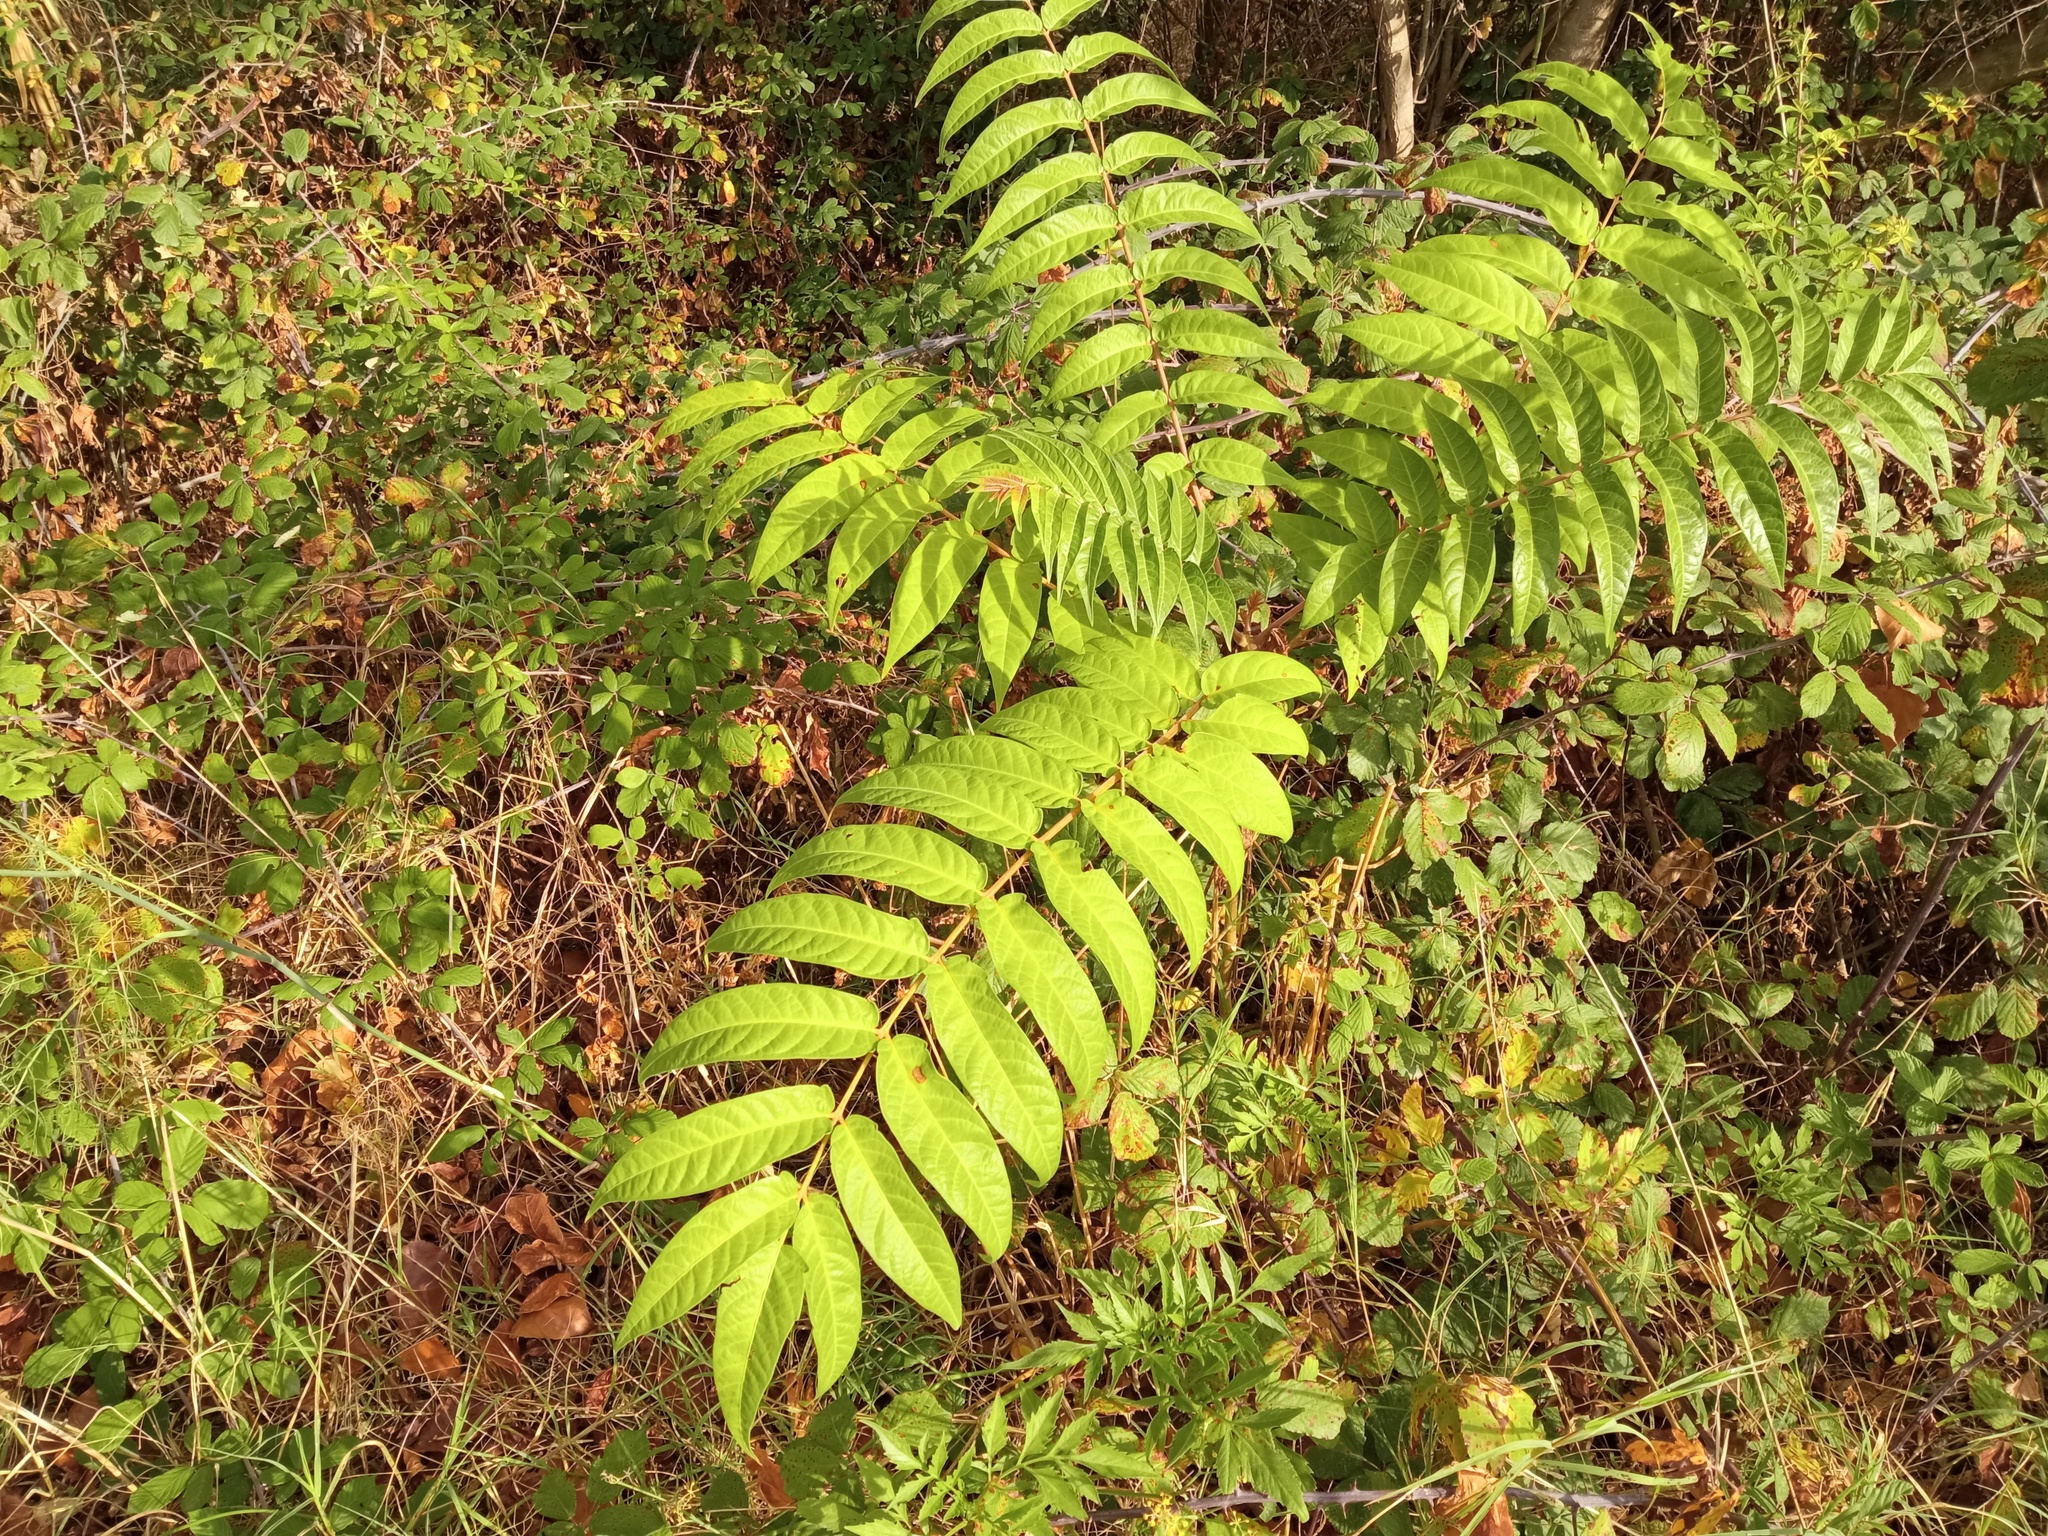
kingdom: Plantae
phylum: Tracheophyta
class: Magnoliopsida
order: Sapindales
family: Simaroubaceae
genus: Ailanthus
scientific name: Ailanthus altissima
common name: Tree-of-heaven
